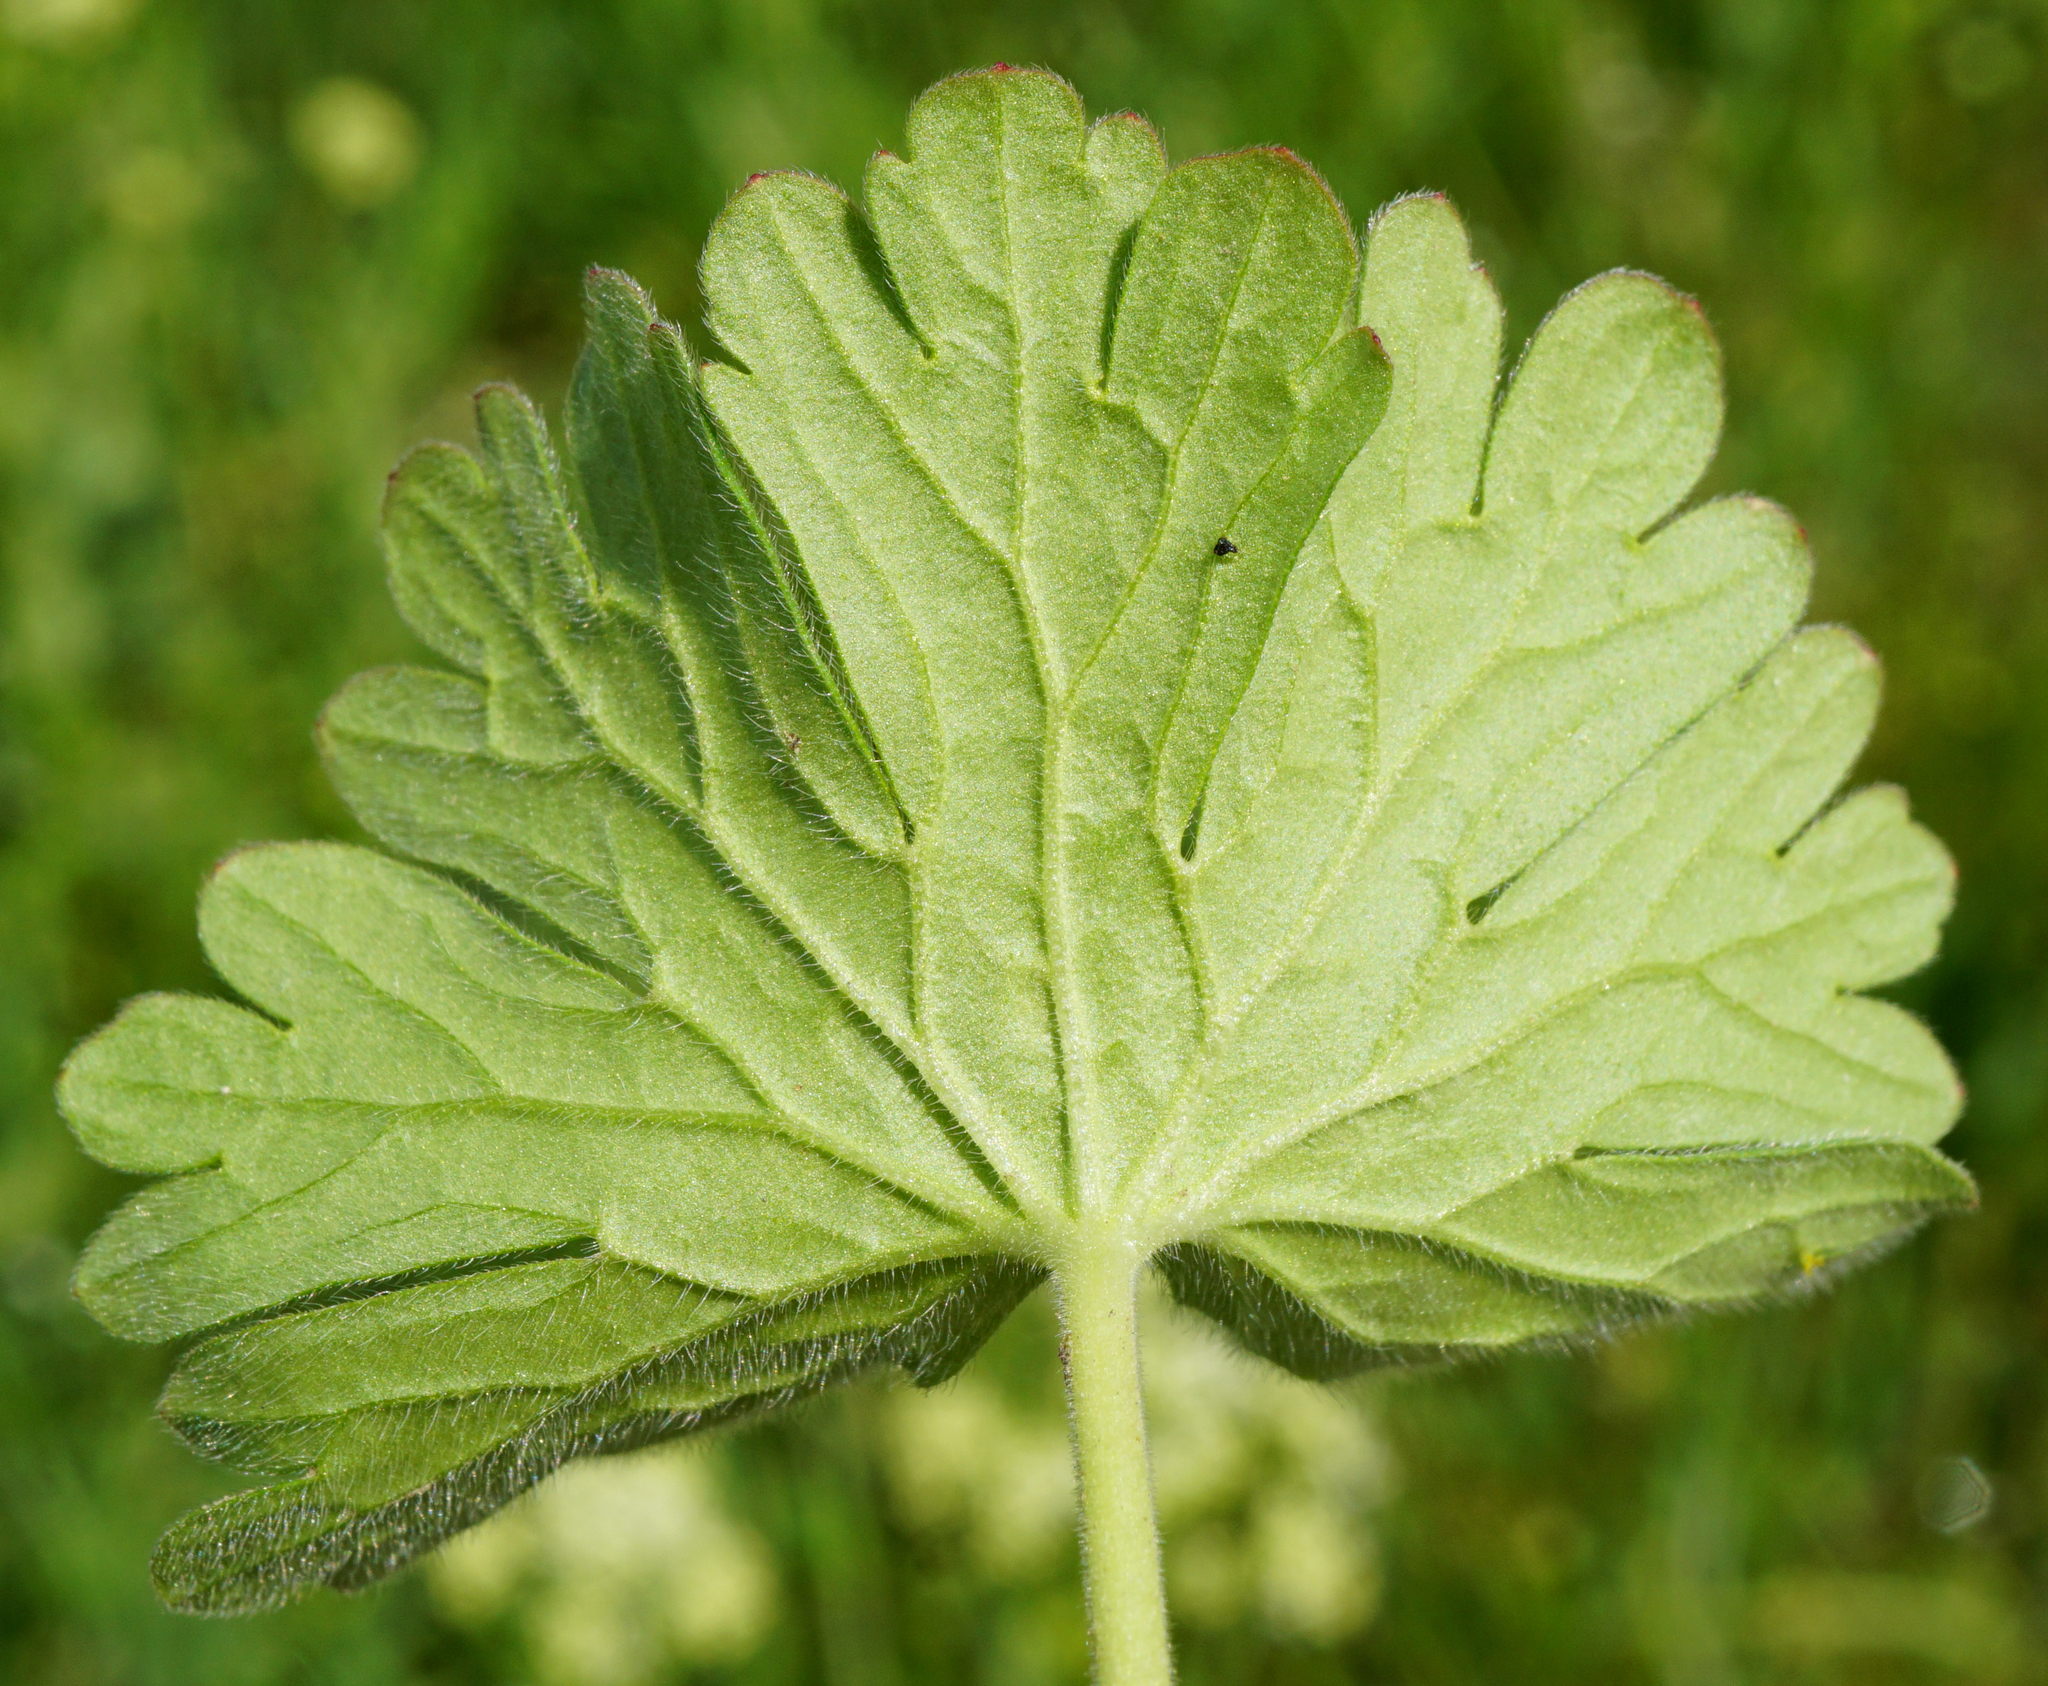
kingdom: Plantae
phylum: Tracheophyta
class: Magnoliopsida
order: Geraniales
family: Geraniaceae
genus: Geranium
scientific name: Geranium pusillum
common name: Small geranium
